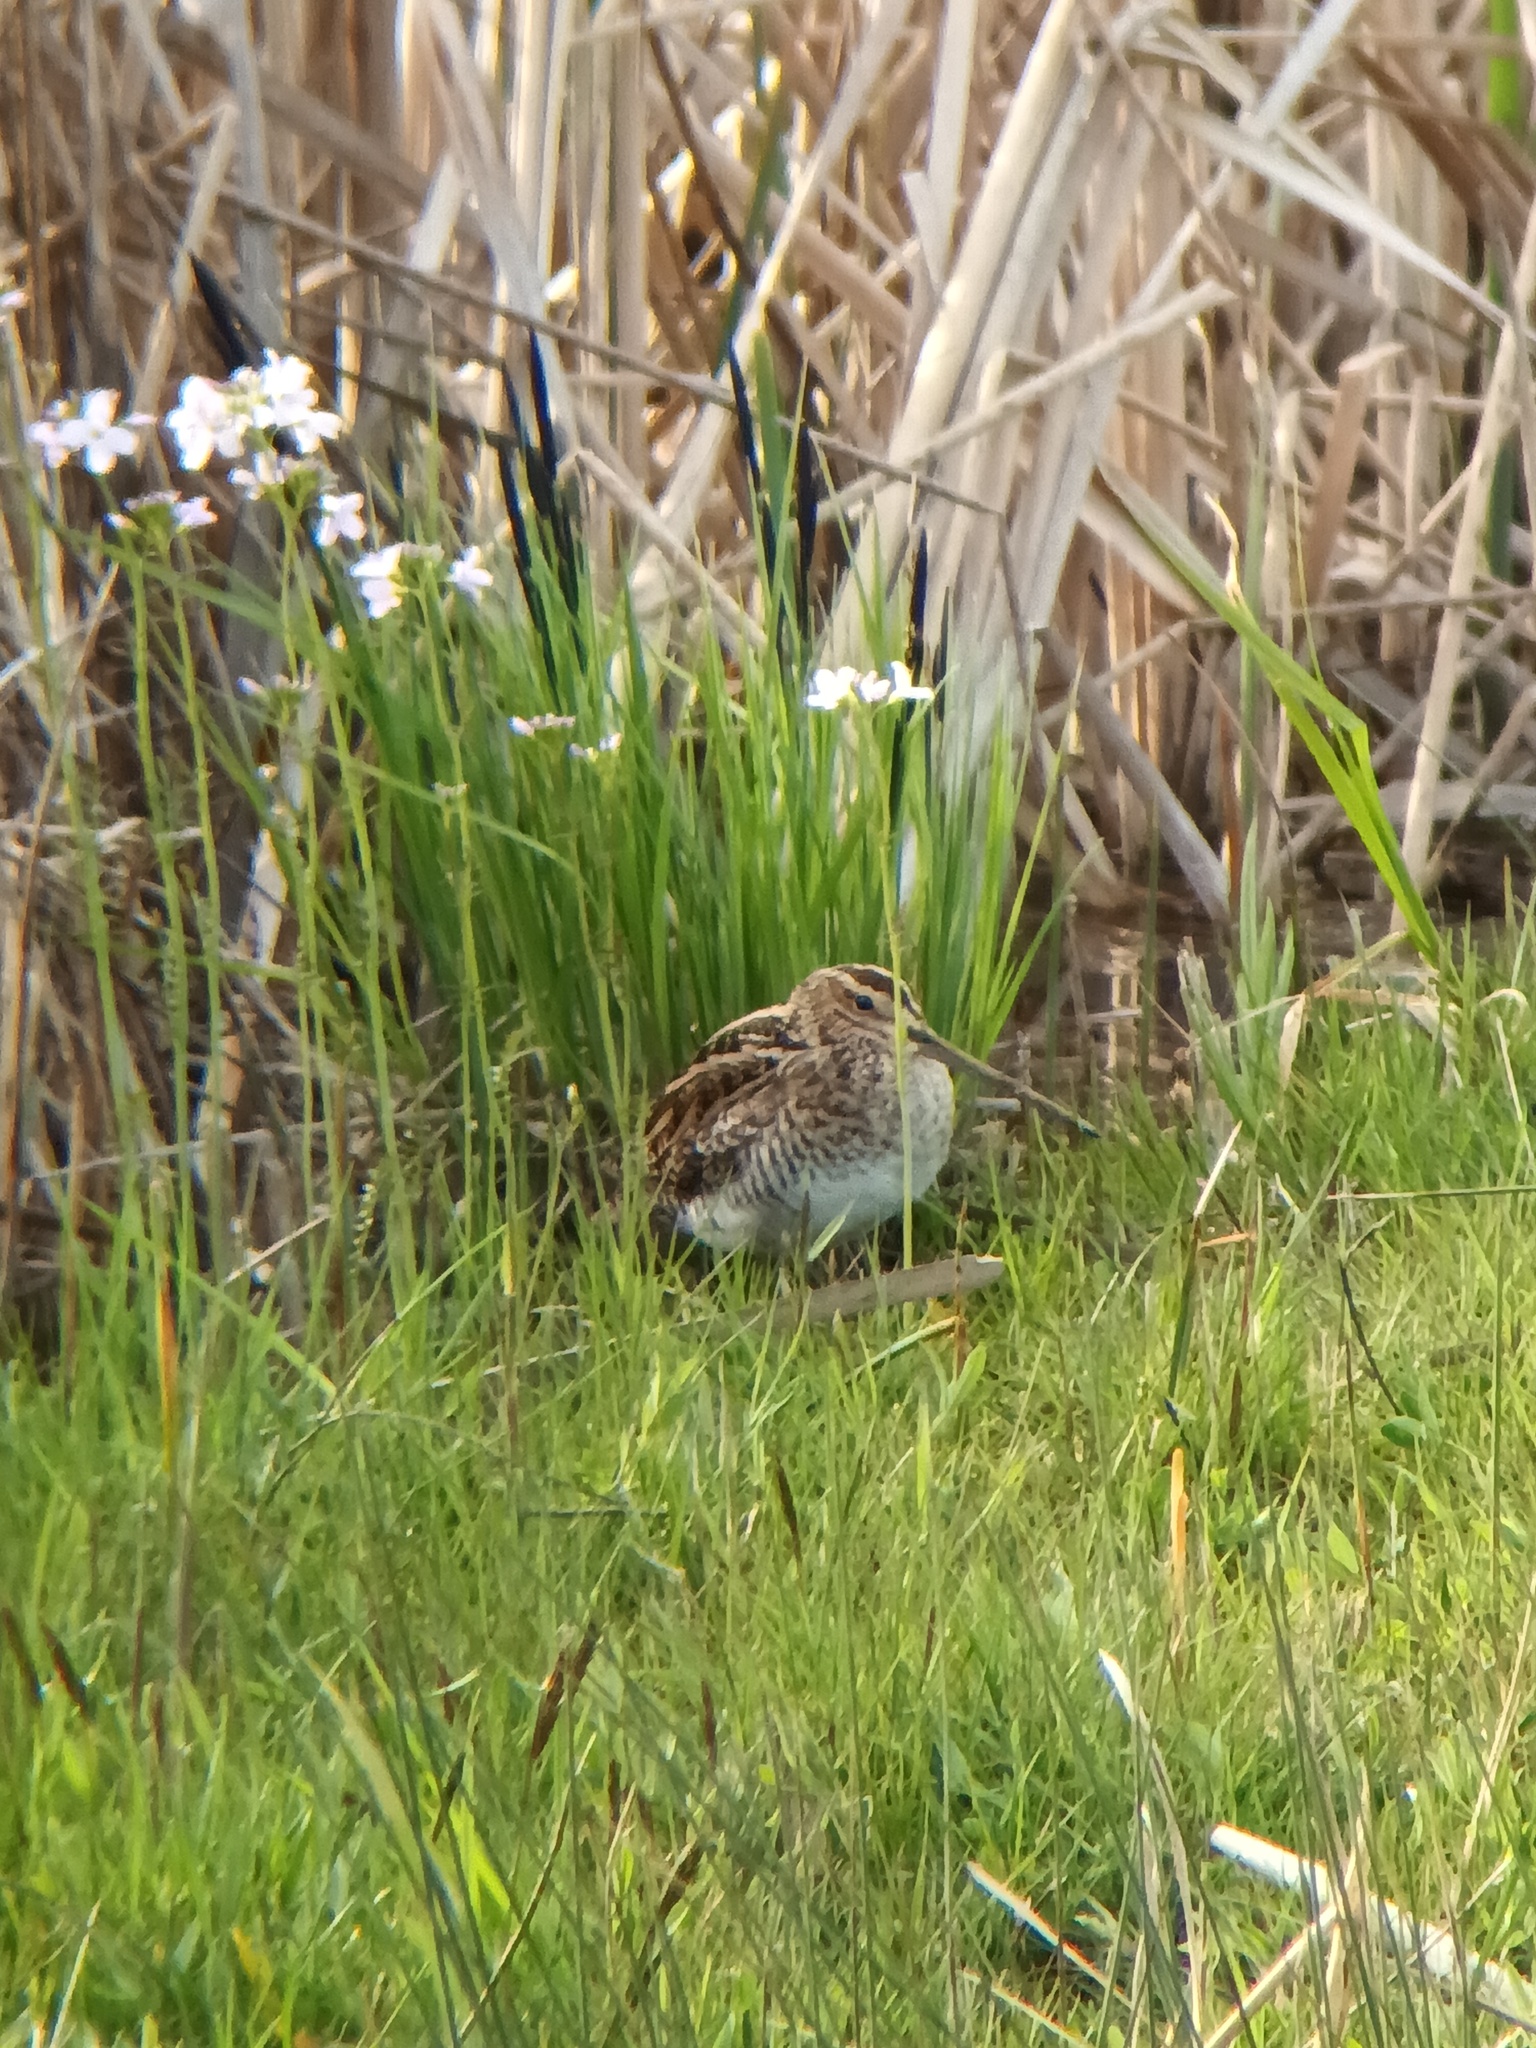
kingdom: Animalia
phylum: Chordata
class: Aves
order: Charadriiformes
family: Scolopacidae
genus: Gallinago
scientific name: Gallinago gallinago
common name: Common snipe
